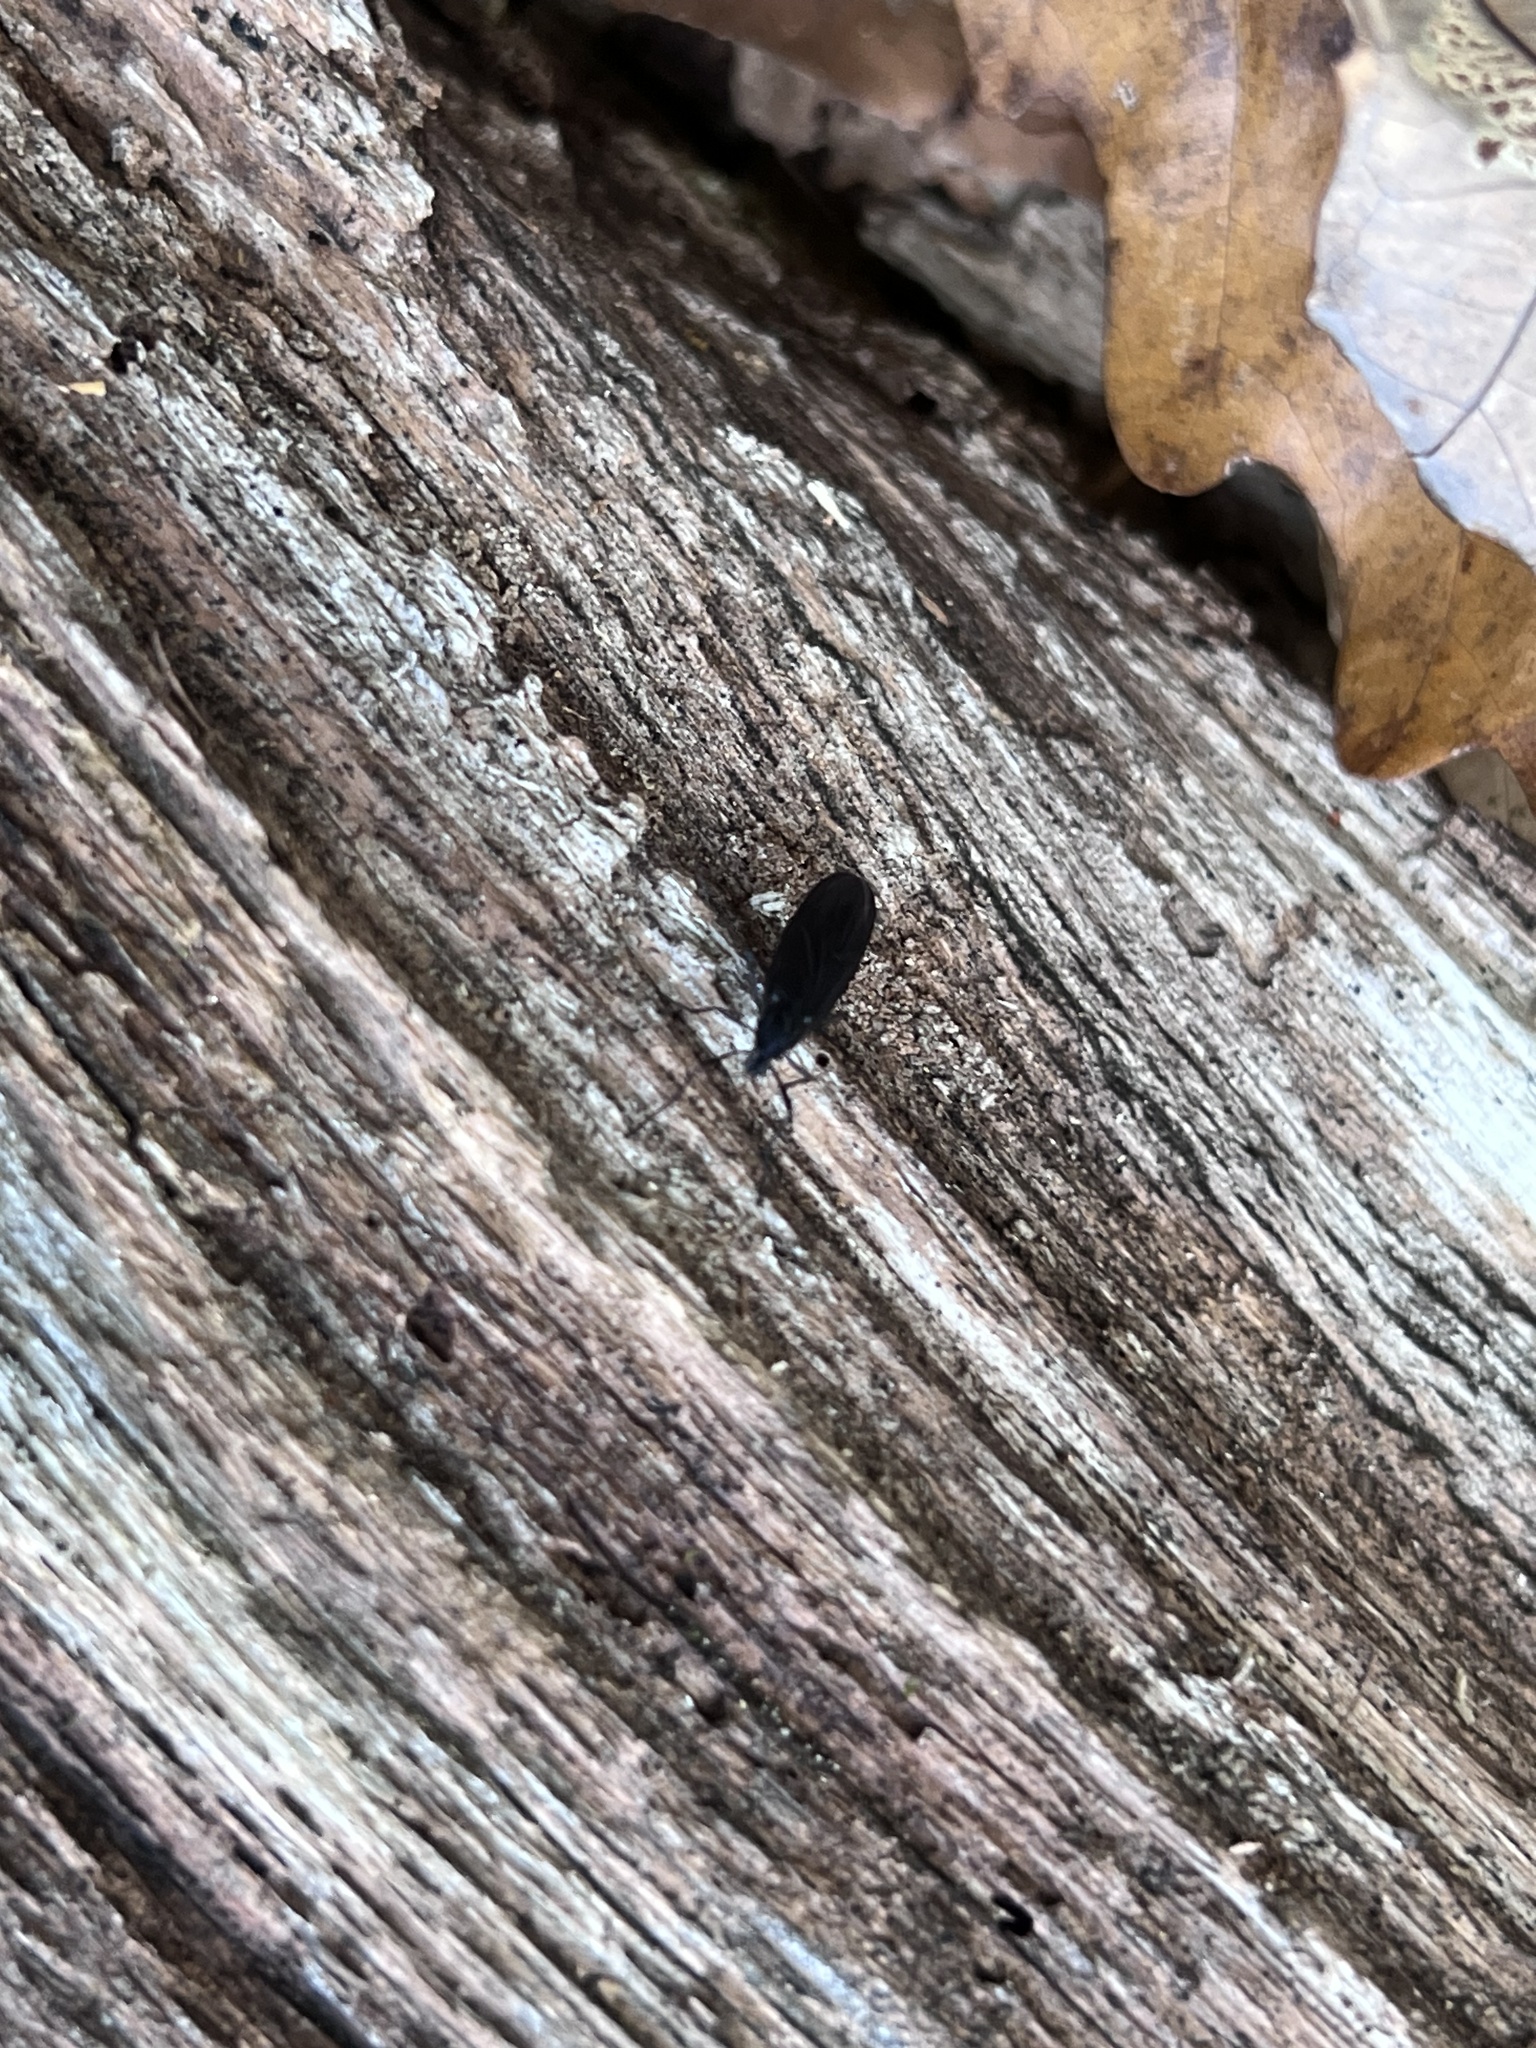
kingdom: Animalia
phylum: Arthropoda
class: Insecta
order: Diptera
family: Bibionidae
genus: Penthetria
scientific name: Penthetria heteroptera
